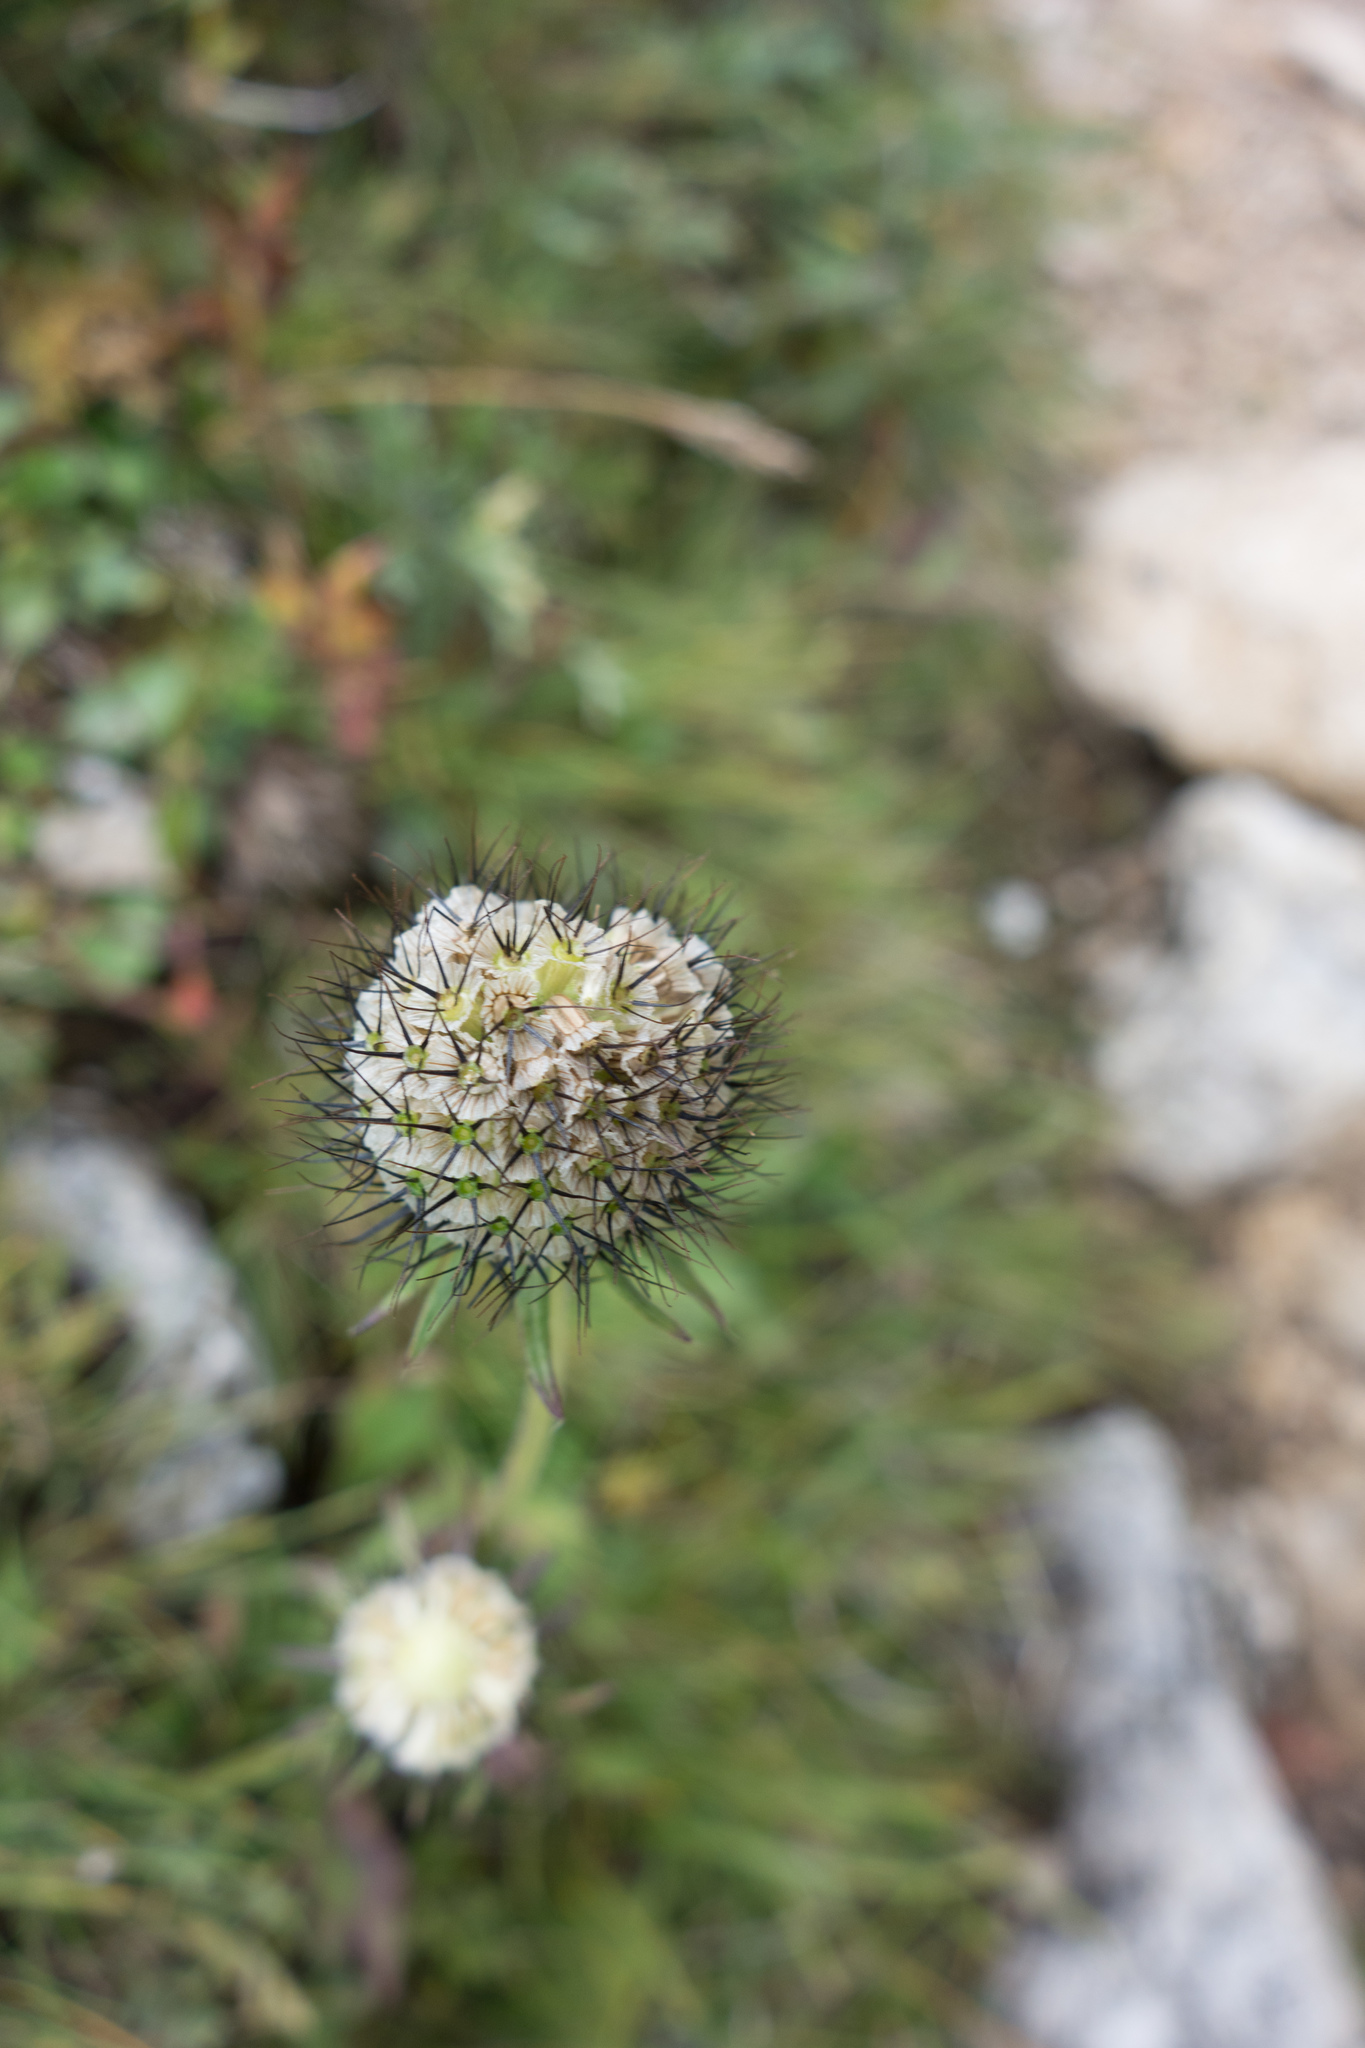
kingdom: Plantae
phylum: Tracheophyta
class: Magnoliopsida
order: Dipsacales
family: Caprifoliaceae
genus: Scabiosa
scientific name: Scabiosa lucida
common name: Shining scabious
